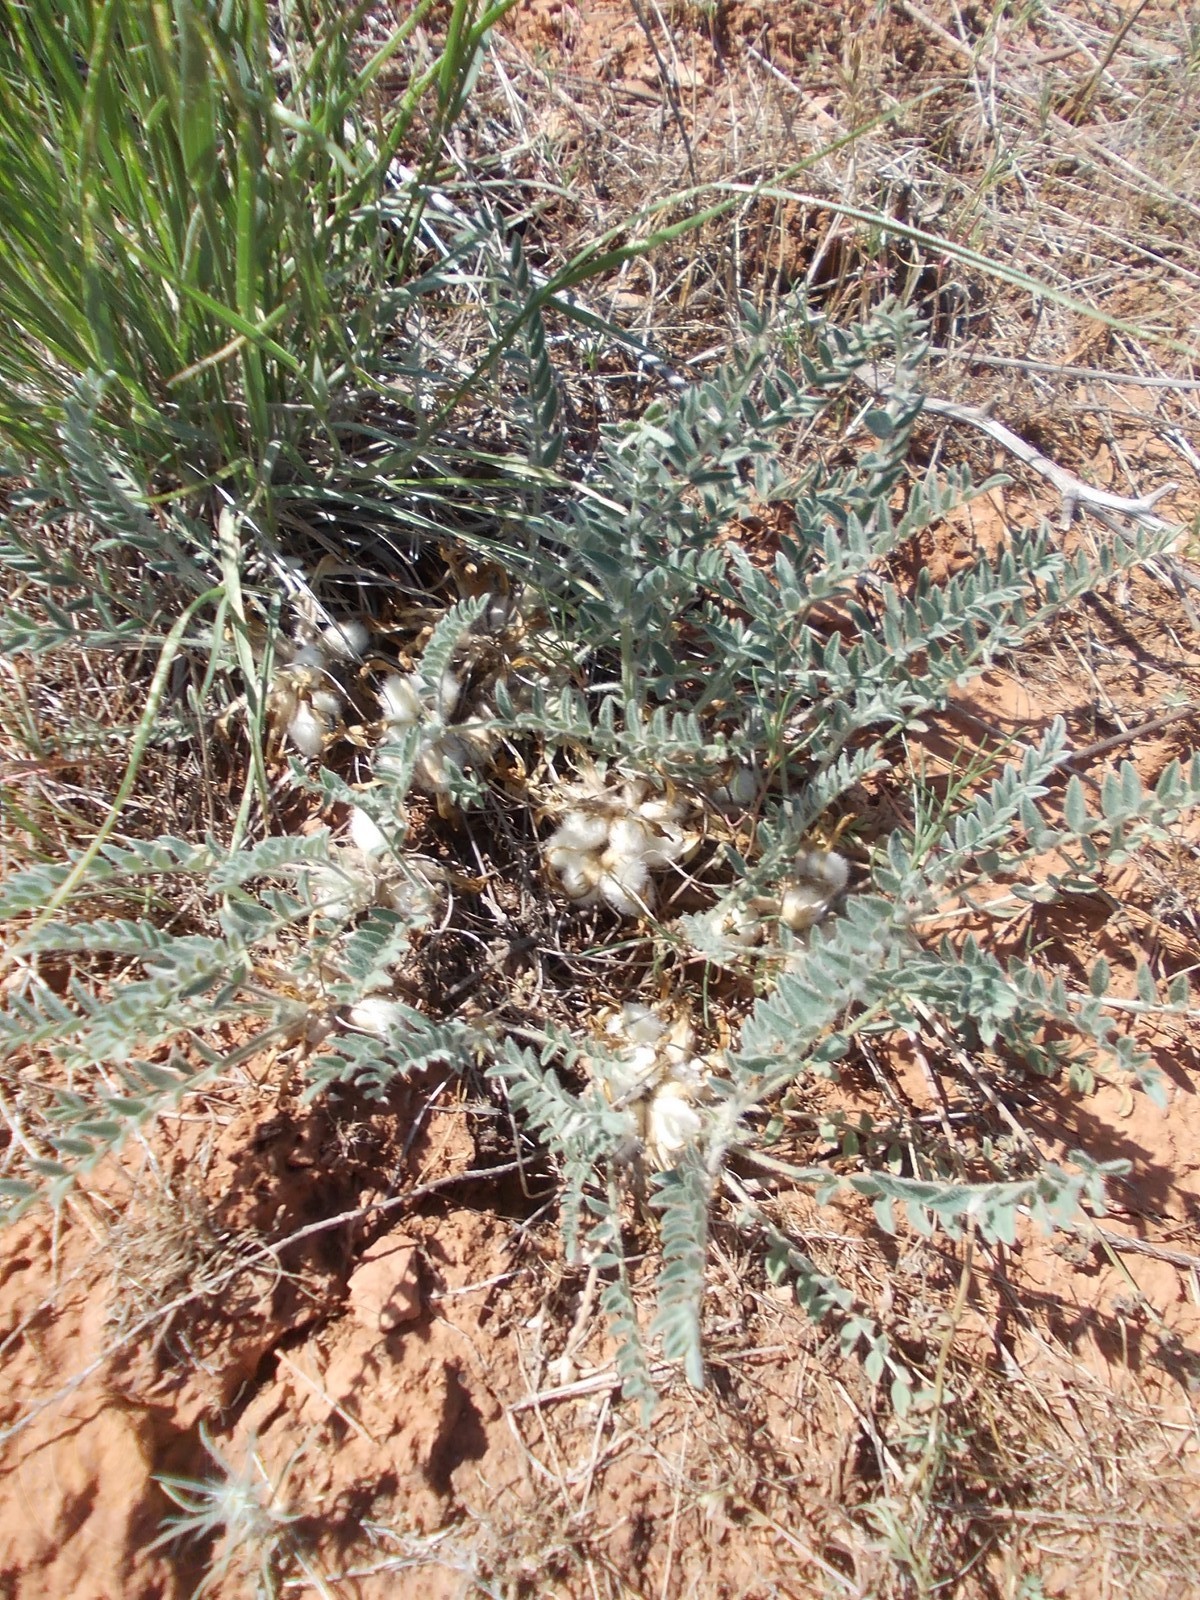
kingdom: Plantae
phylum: Tracheophyta
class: Magnoliopsida
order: Fabales
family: Fabaceae
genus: Astragalus
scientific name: Astragalus testiculatus
